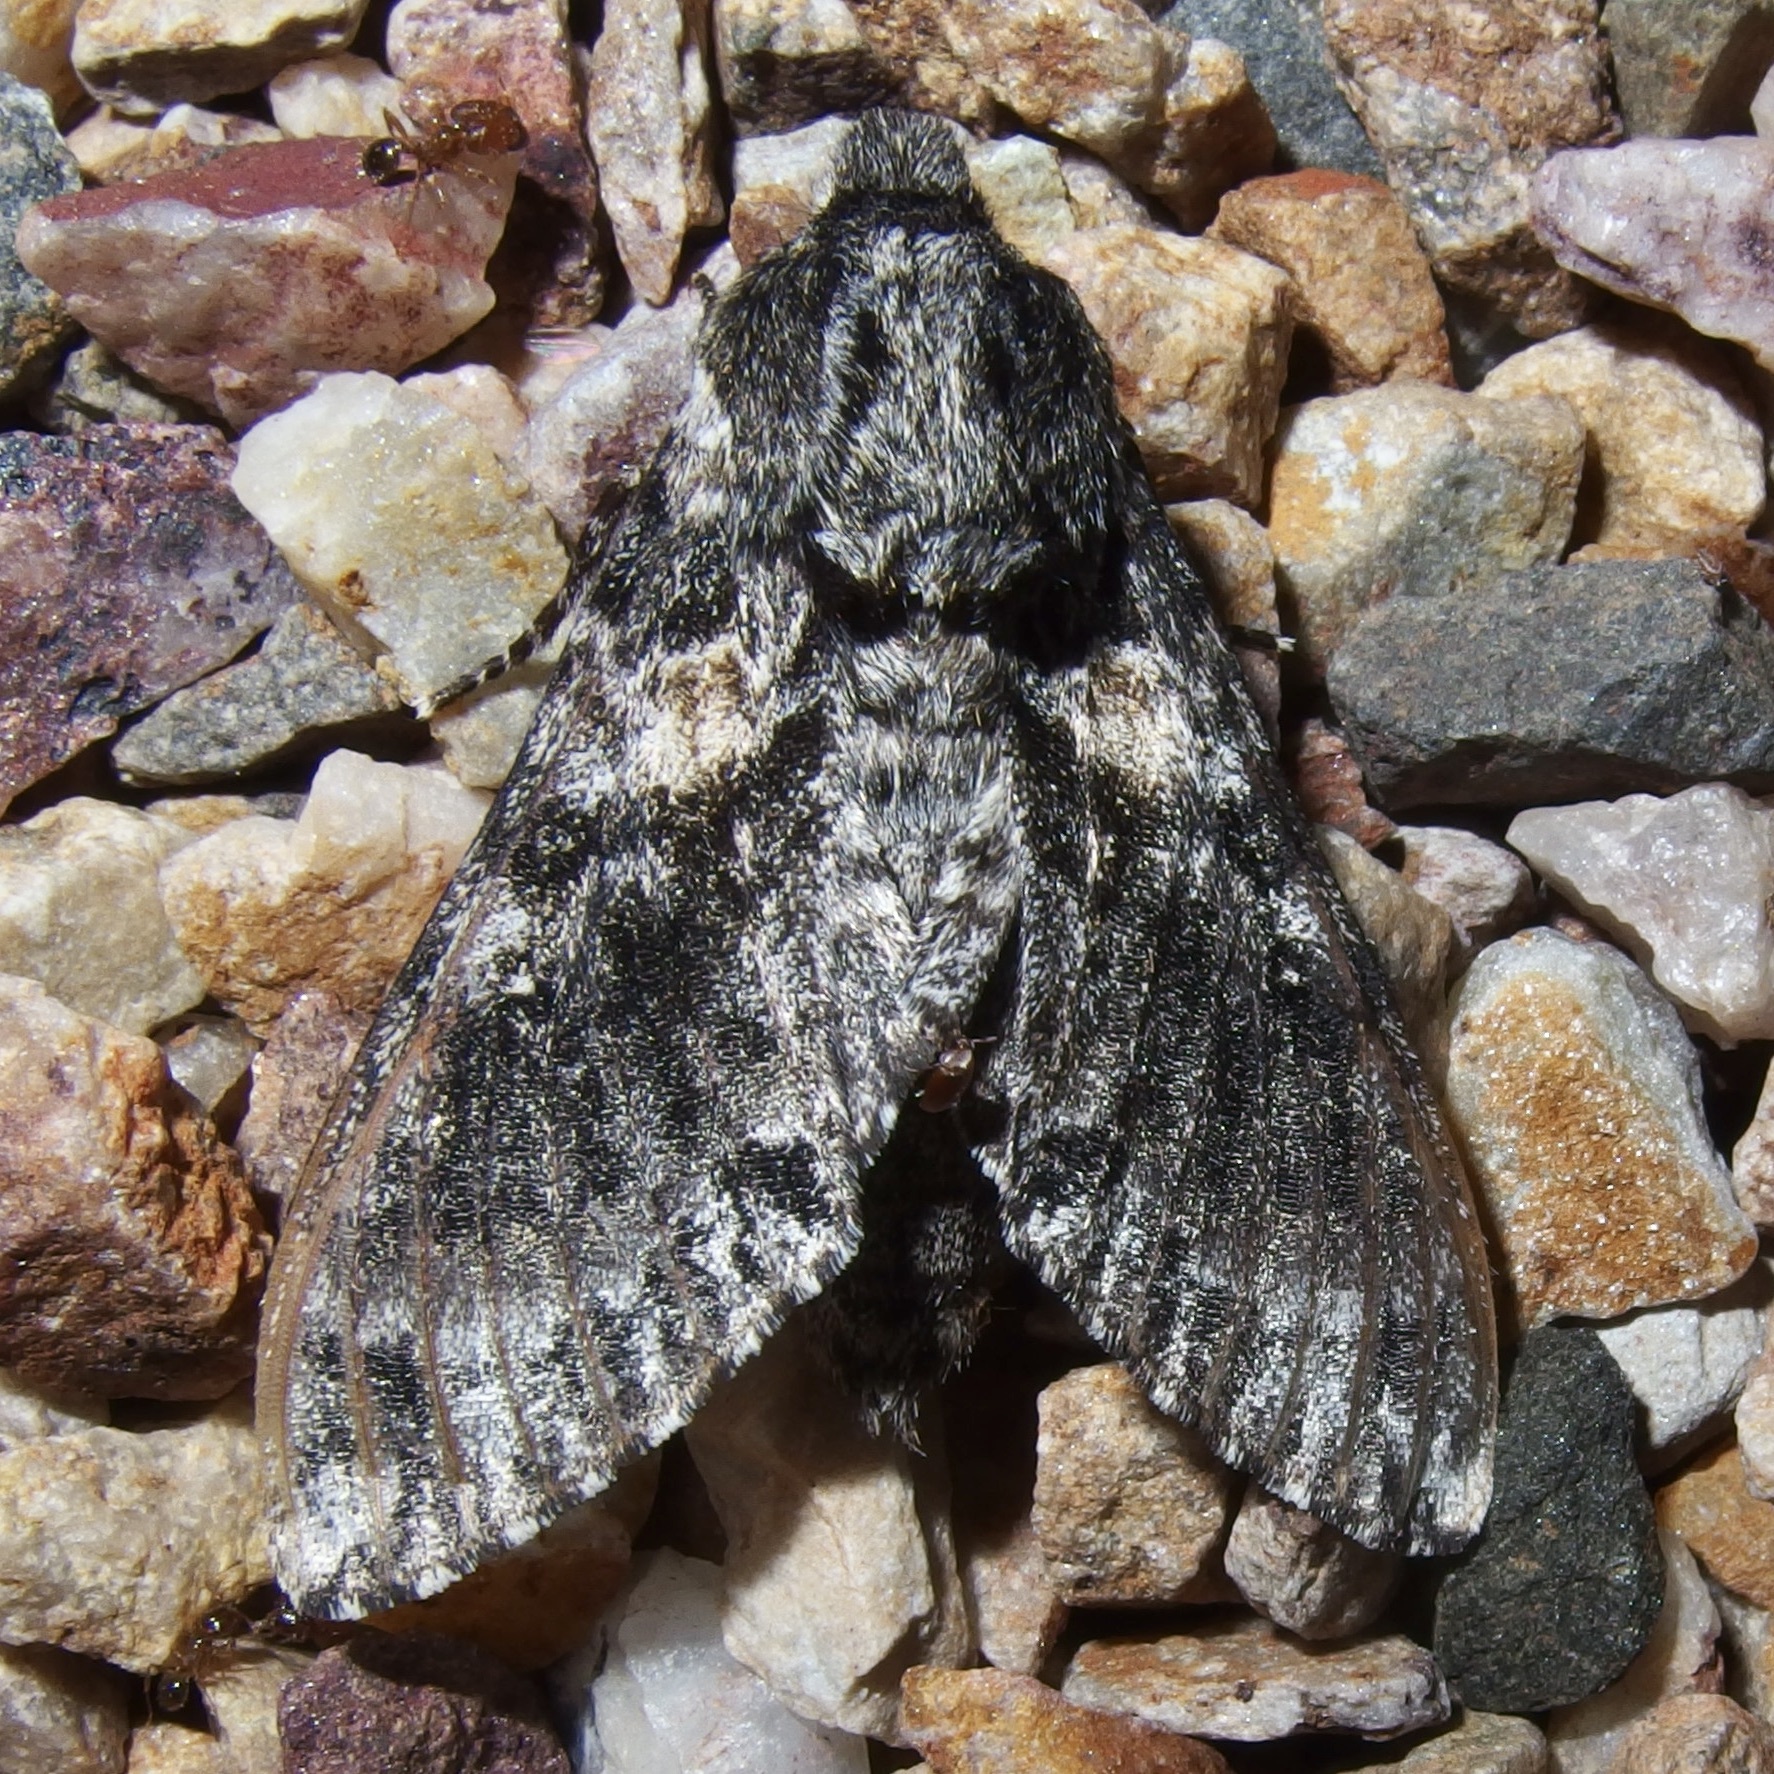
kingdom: Animalia
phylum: Arthropoda
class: Insecta
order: Lepidoptera
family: Sphingidae
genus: Dolbogene
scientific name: Dolbogene hartwegii
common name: Hartweg's sphinx
